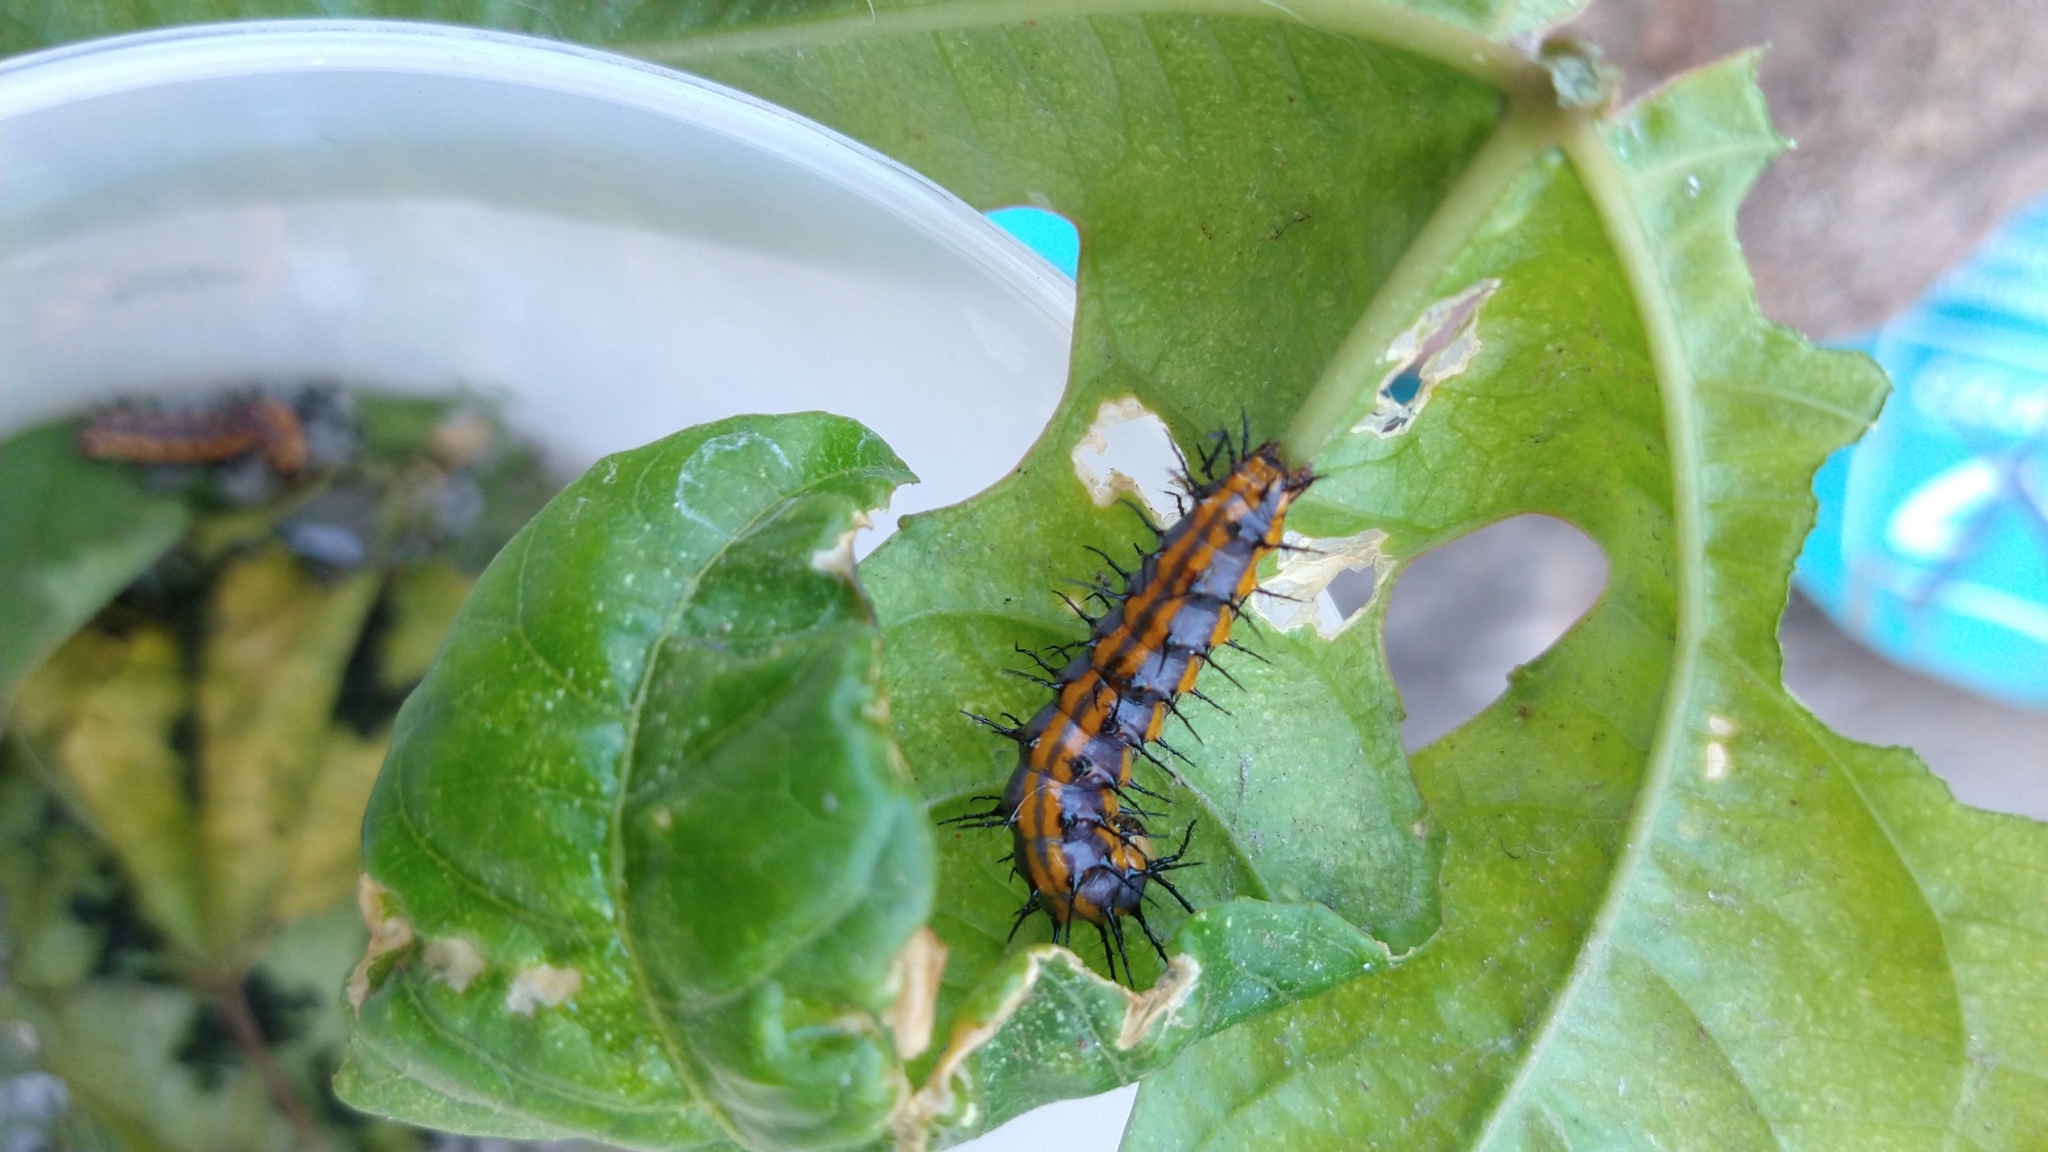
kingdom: Animalia
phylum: Arthropoda
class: Insecta
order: Lepidoptera
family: Nymphalidae
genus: Dione
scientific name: Dione vanillae
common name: Gulf fritillary
